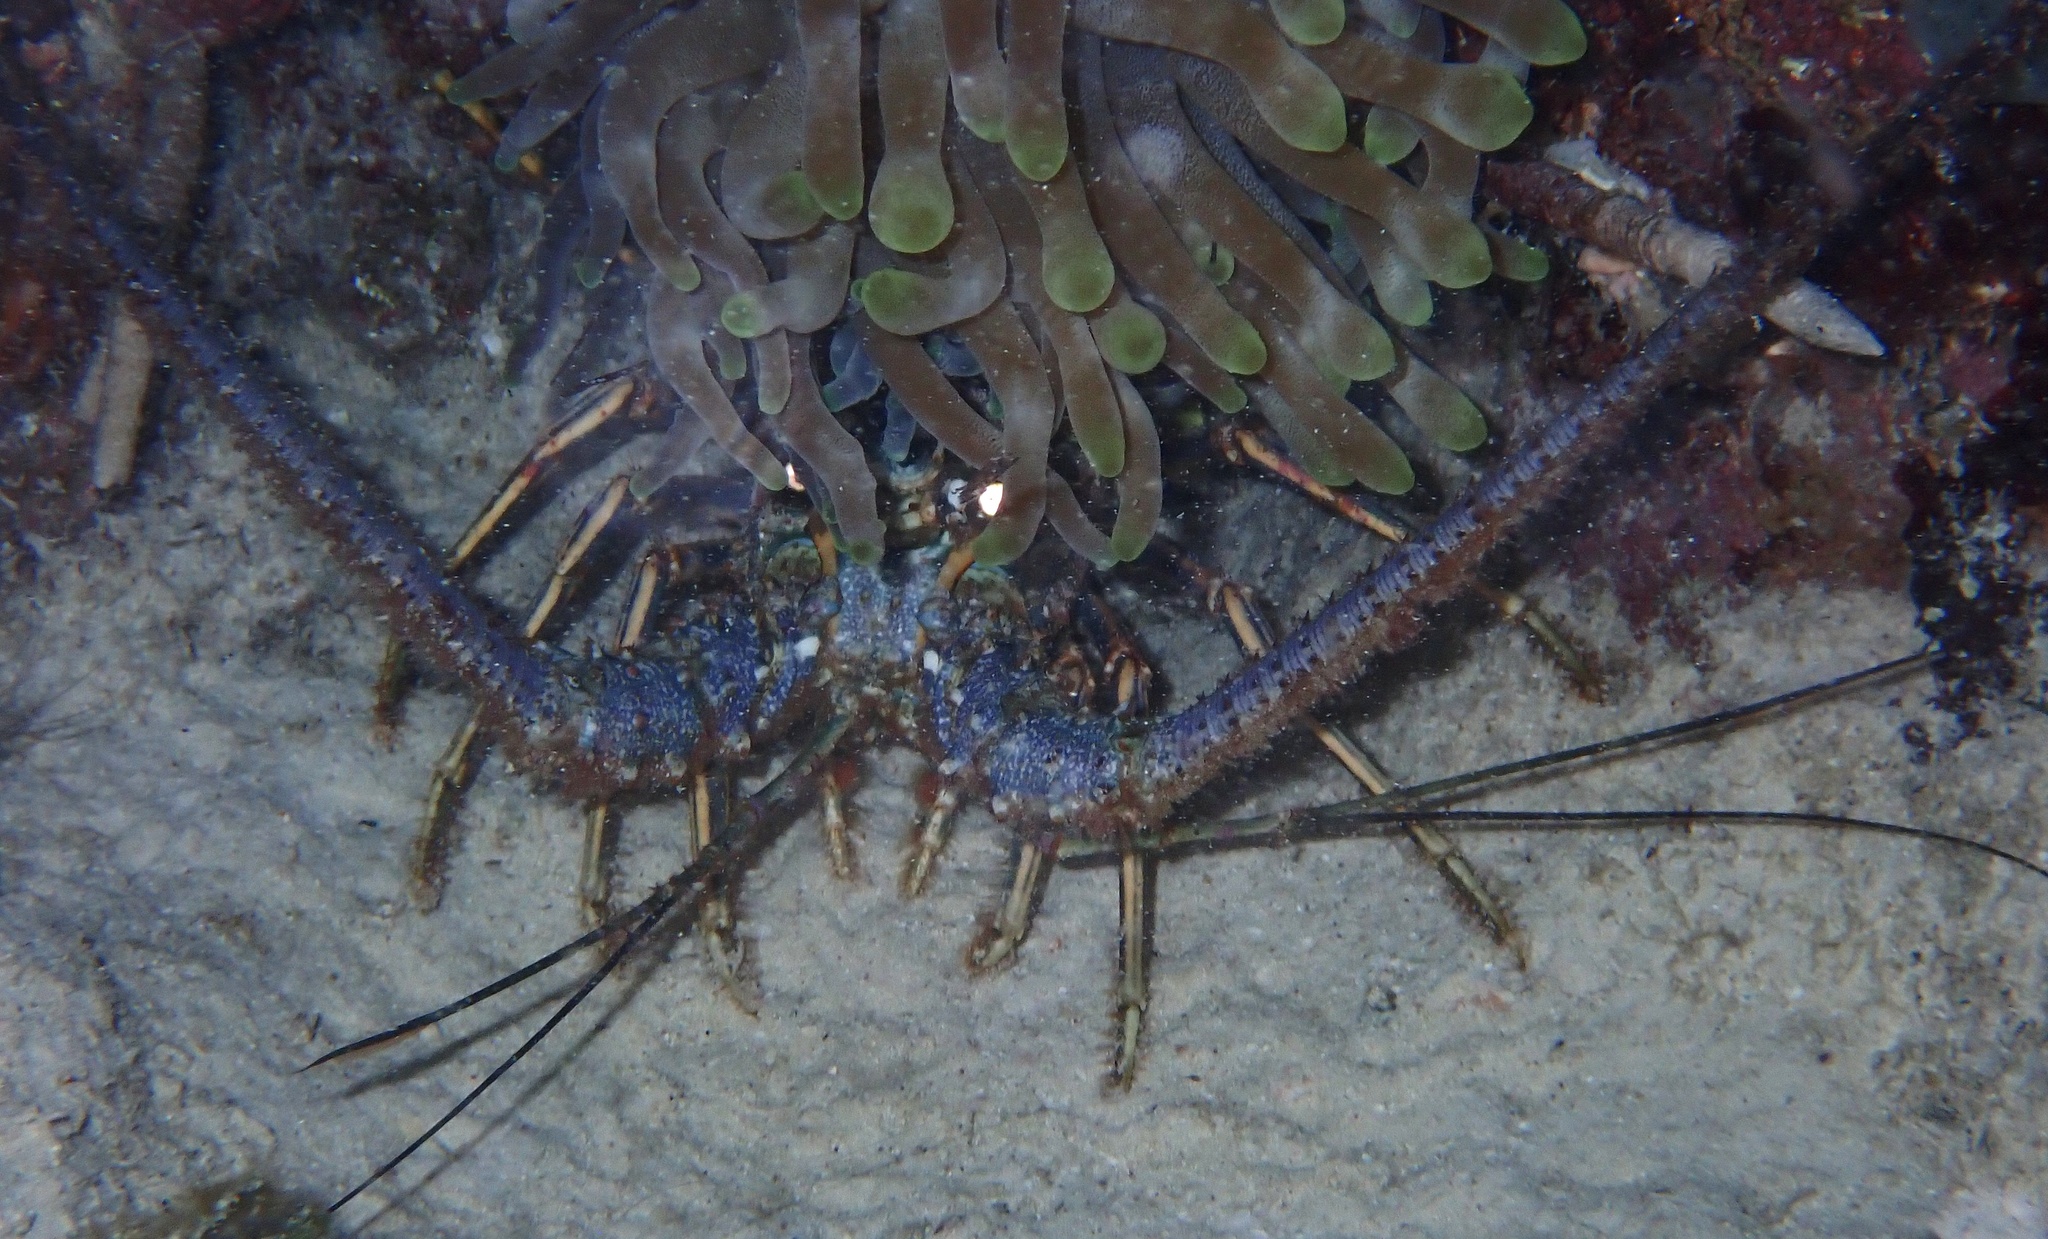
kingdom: Animalia
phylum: Arthropoda
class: Malacostraca
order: Decapoda
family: Palinuridae
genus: Panulirus
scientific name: Panulirus argus
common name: Caribbean spiny lobster
